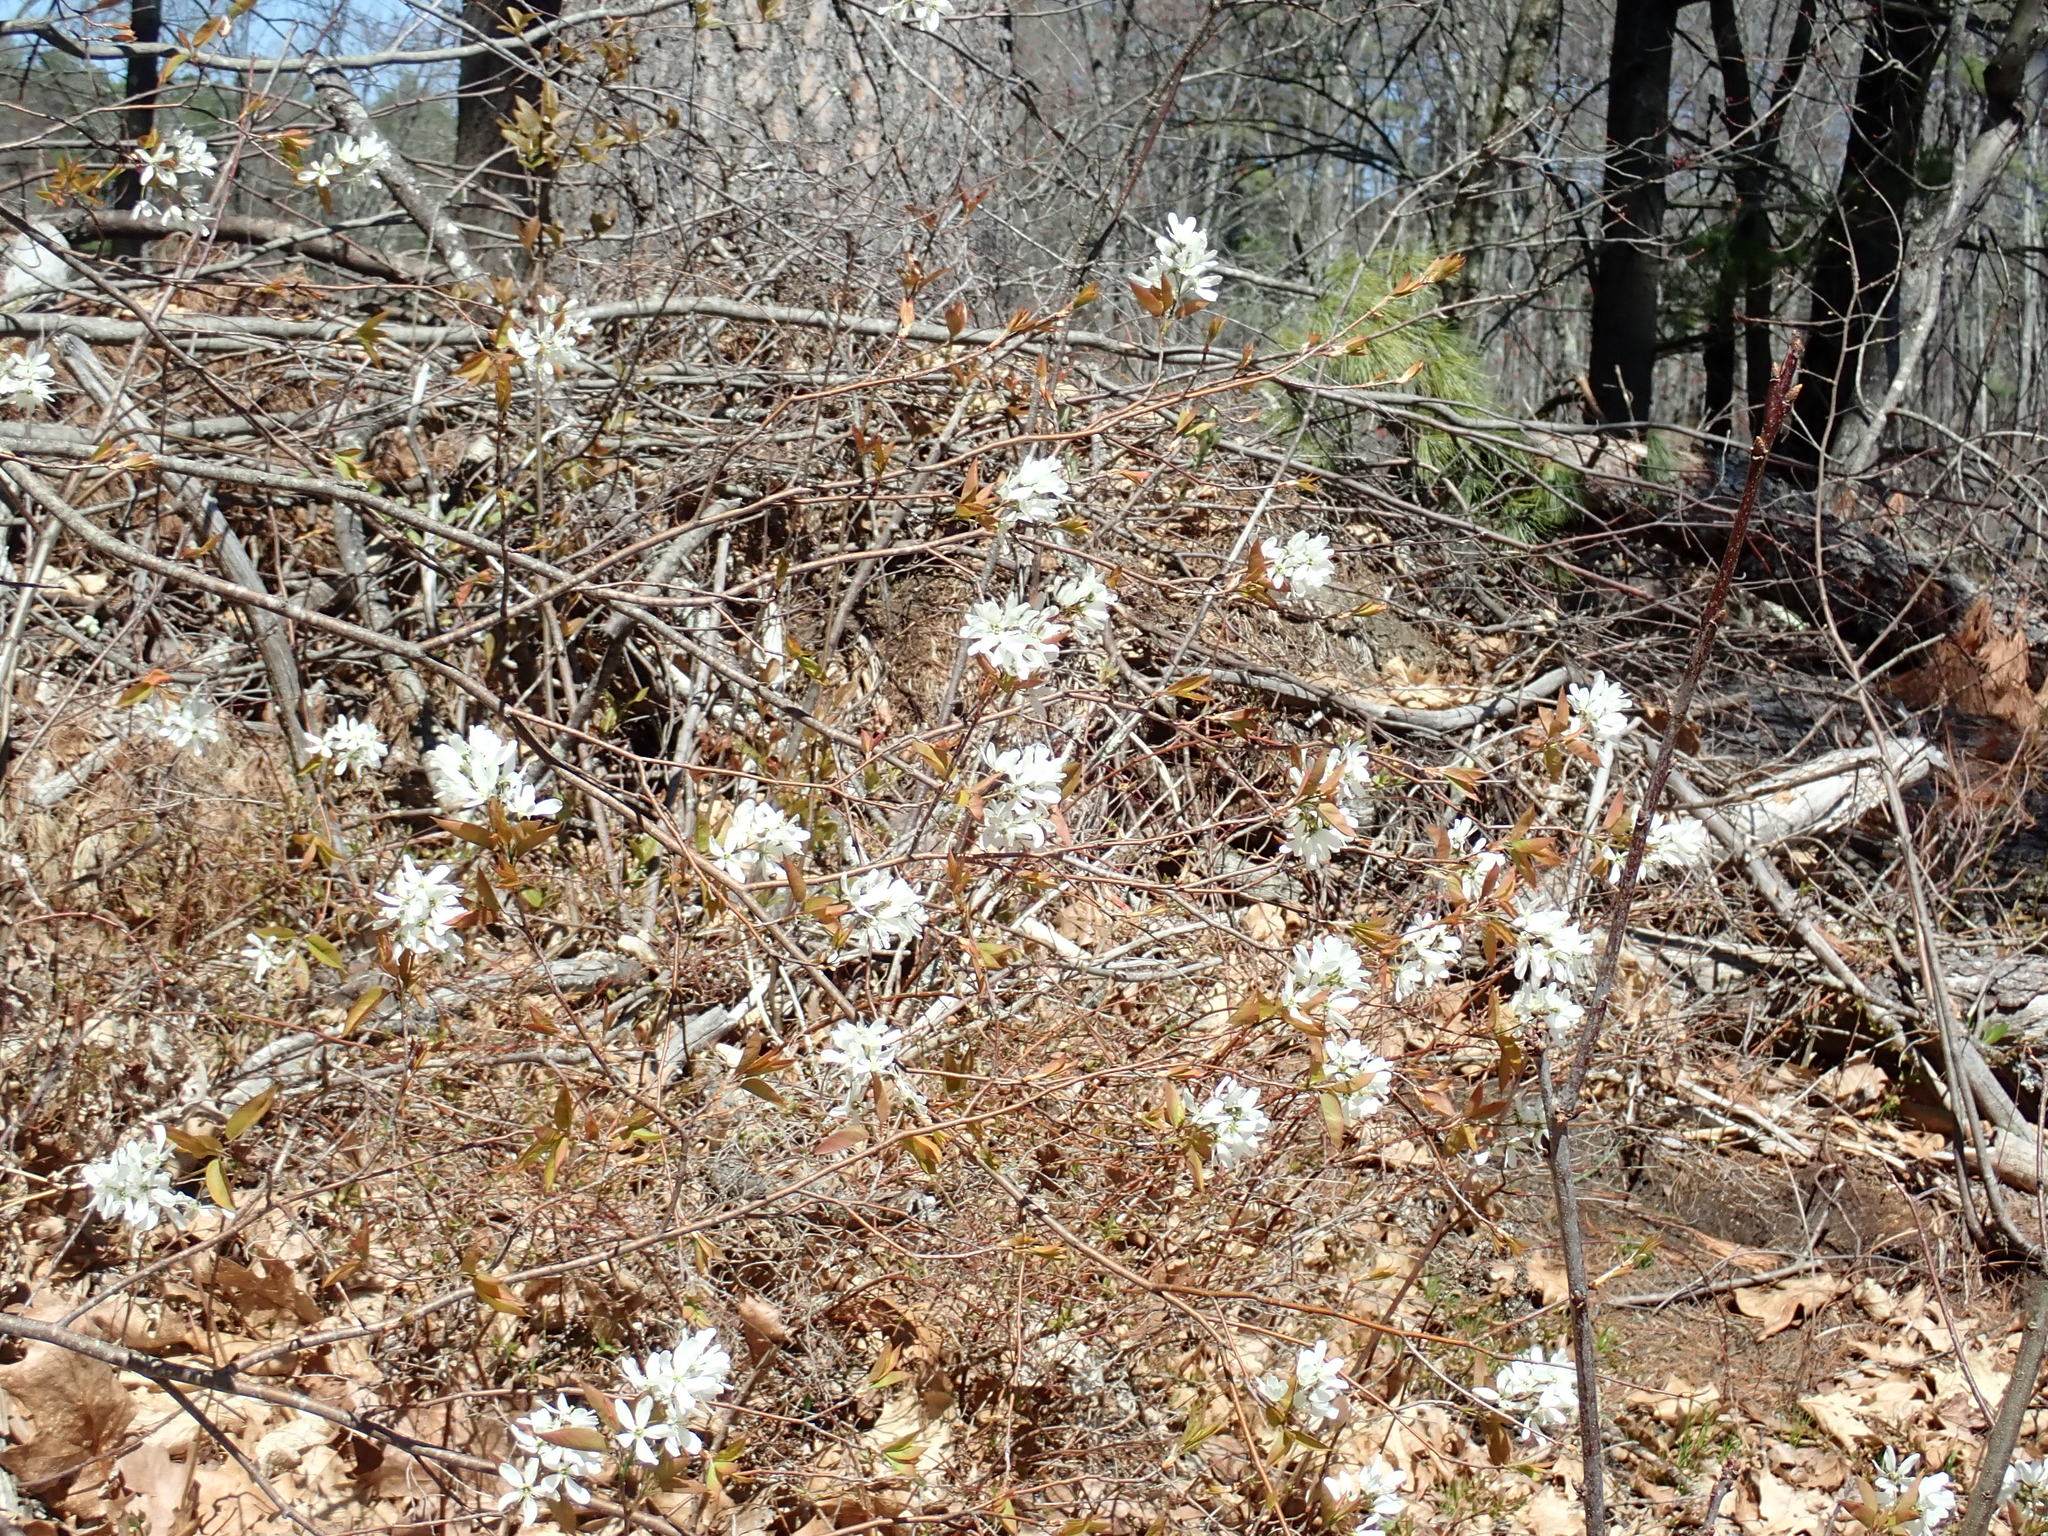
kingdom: Plantae
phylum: Tracheophyta
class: Magnoliopsida
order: Rosales
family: Rosaceae
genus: Amelanchier
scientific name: Amelanchier
